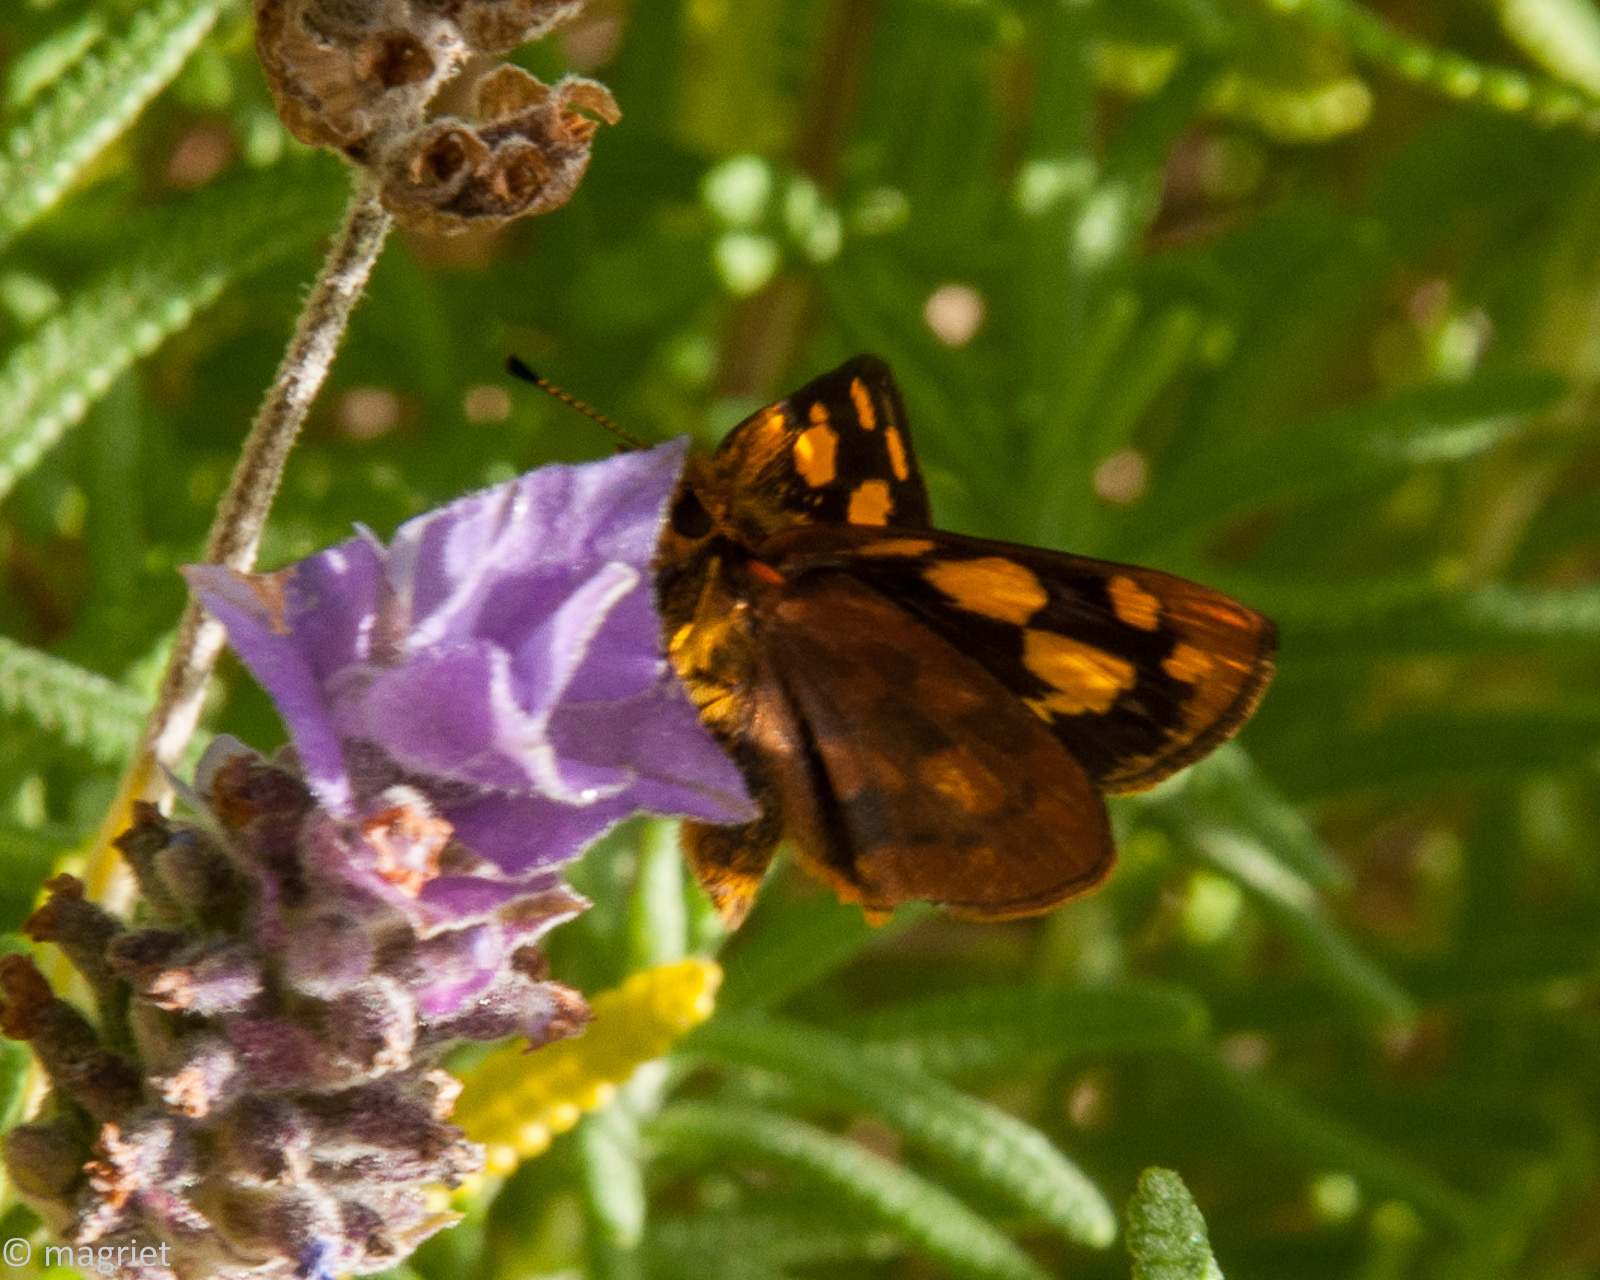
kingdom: Animalia
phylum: Arthropoda
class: Insecta
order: Lepidoptera
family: Hesperiidae
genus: Metisella
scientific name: Metisella metis
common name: Western gold-spotted sylph
